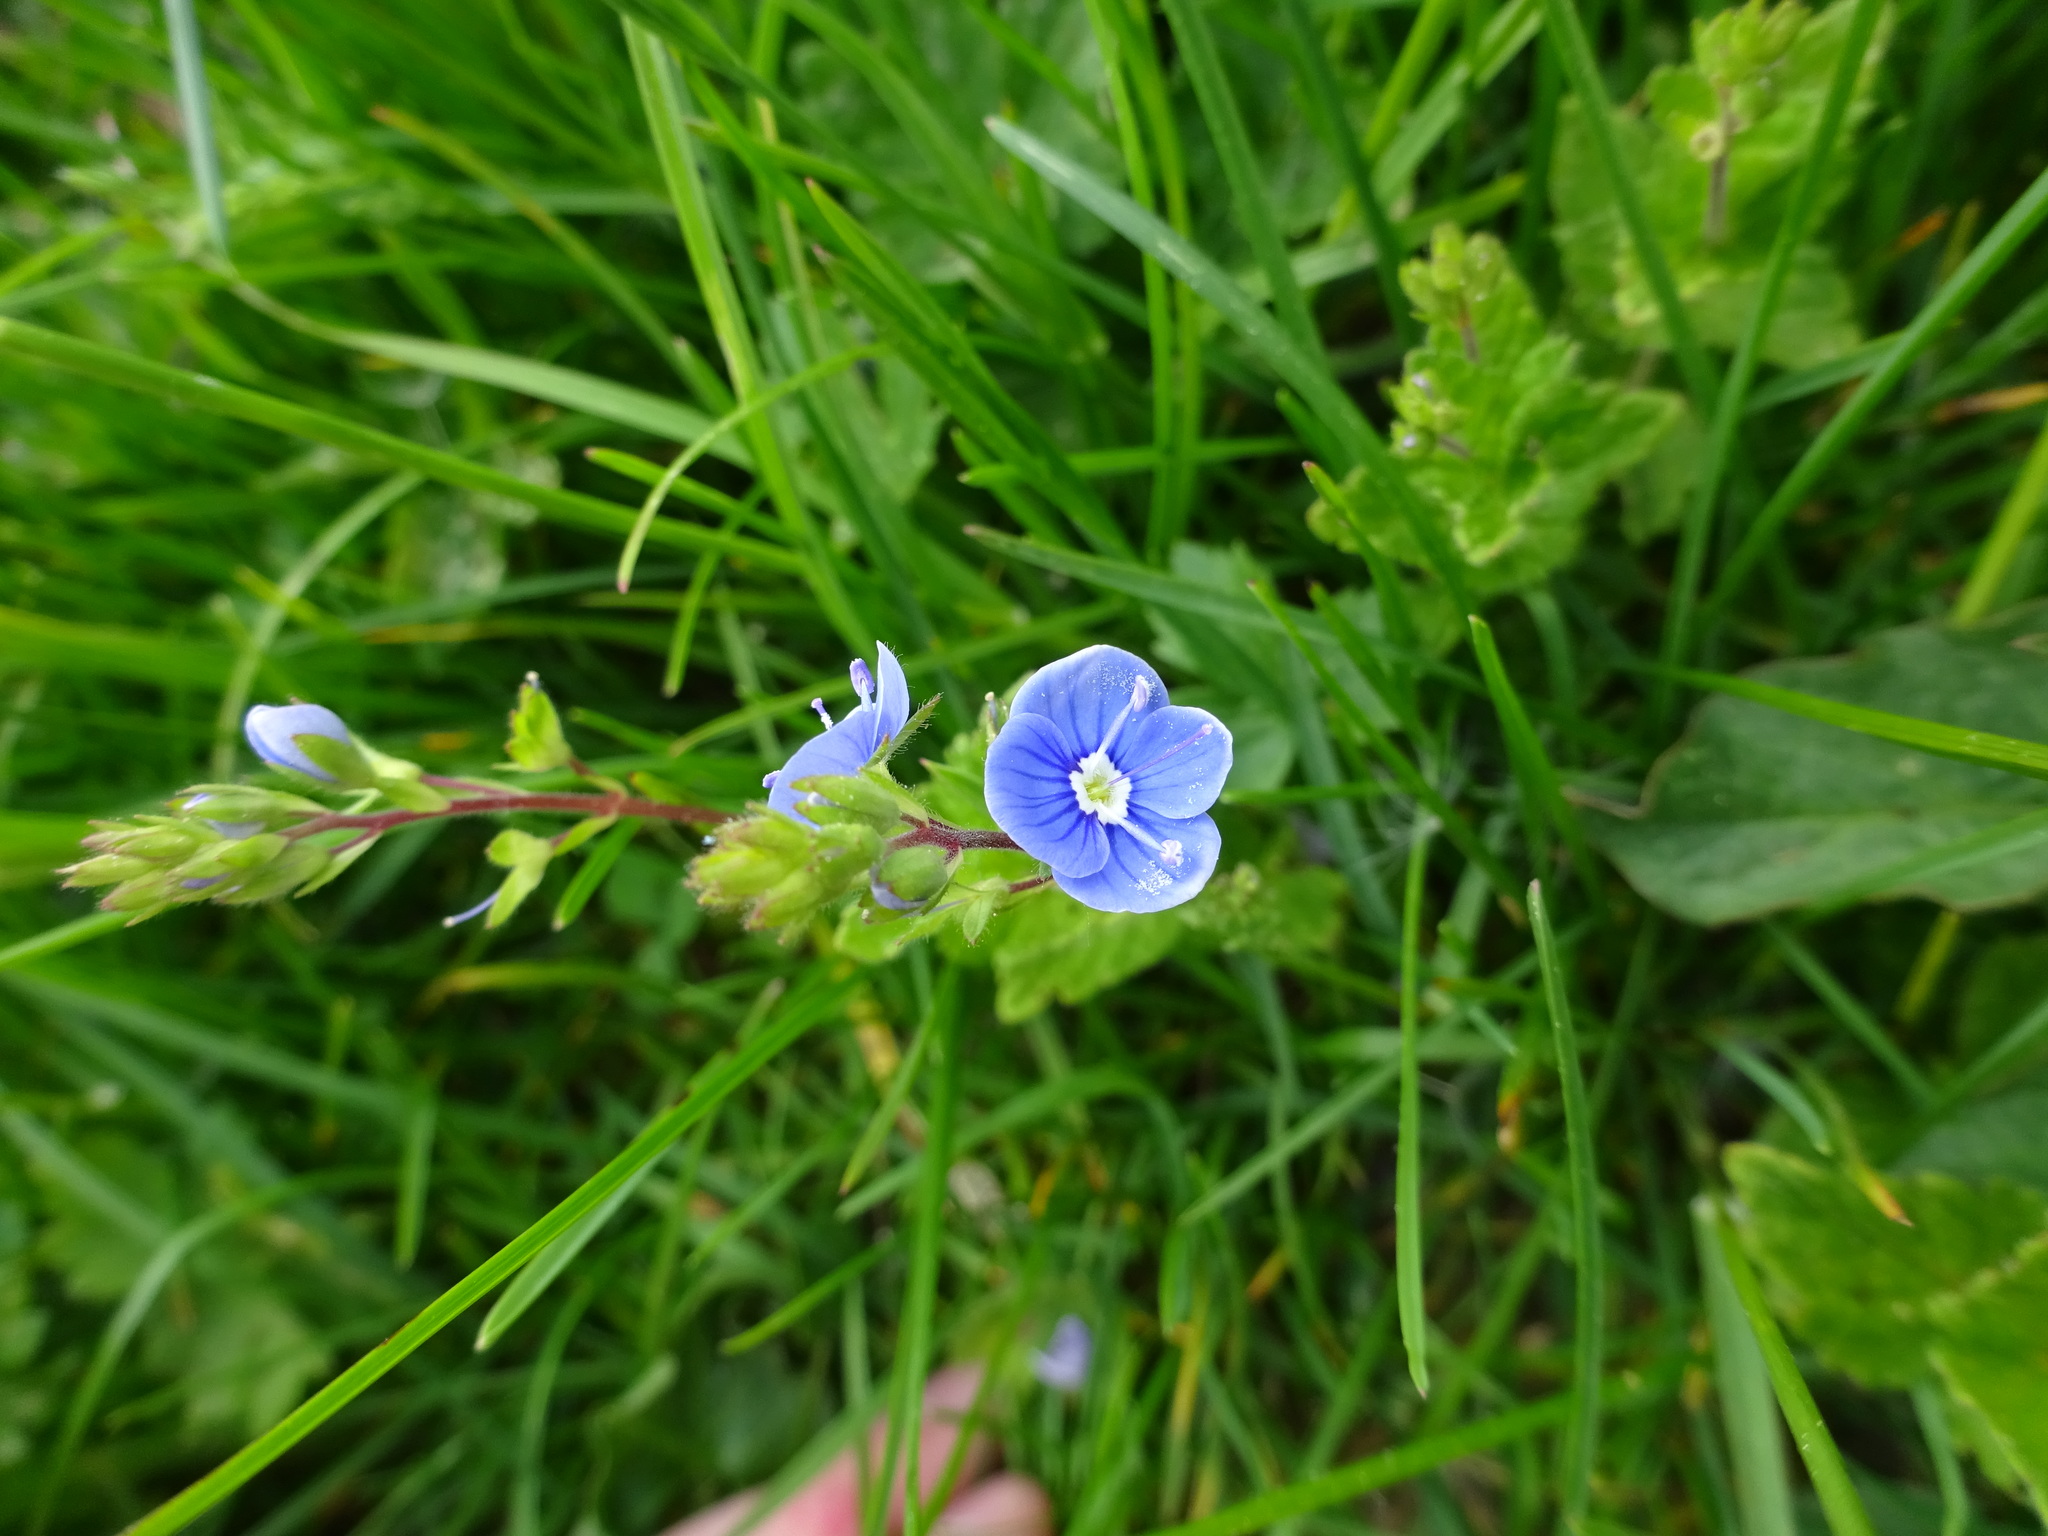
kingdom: Plantae
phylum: Tracheophyta
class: Magnoliopsida
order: Lamiales
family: Plantaginaceae
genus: Veronica
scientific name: Veronica chamaedrys
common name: Germander speedwell
